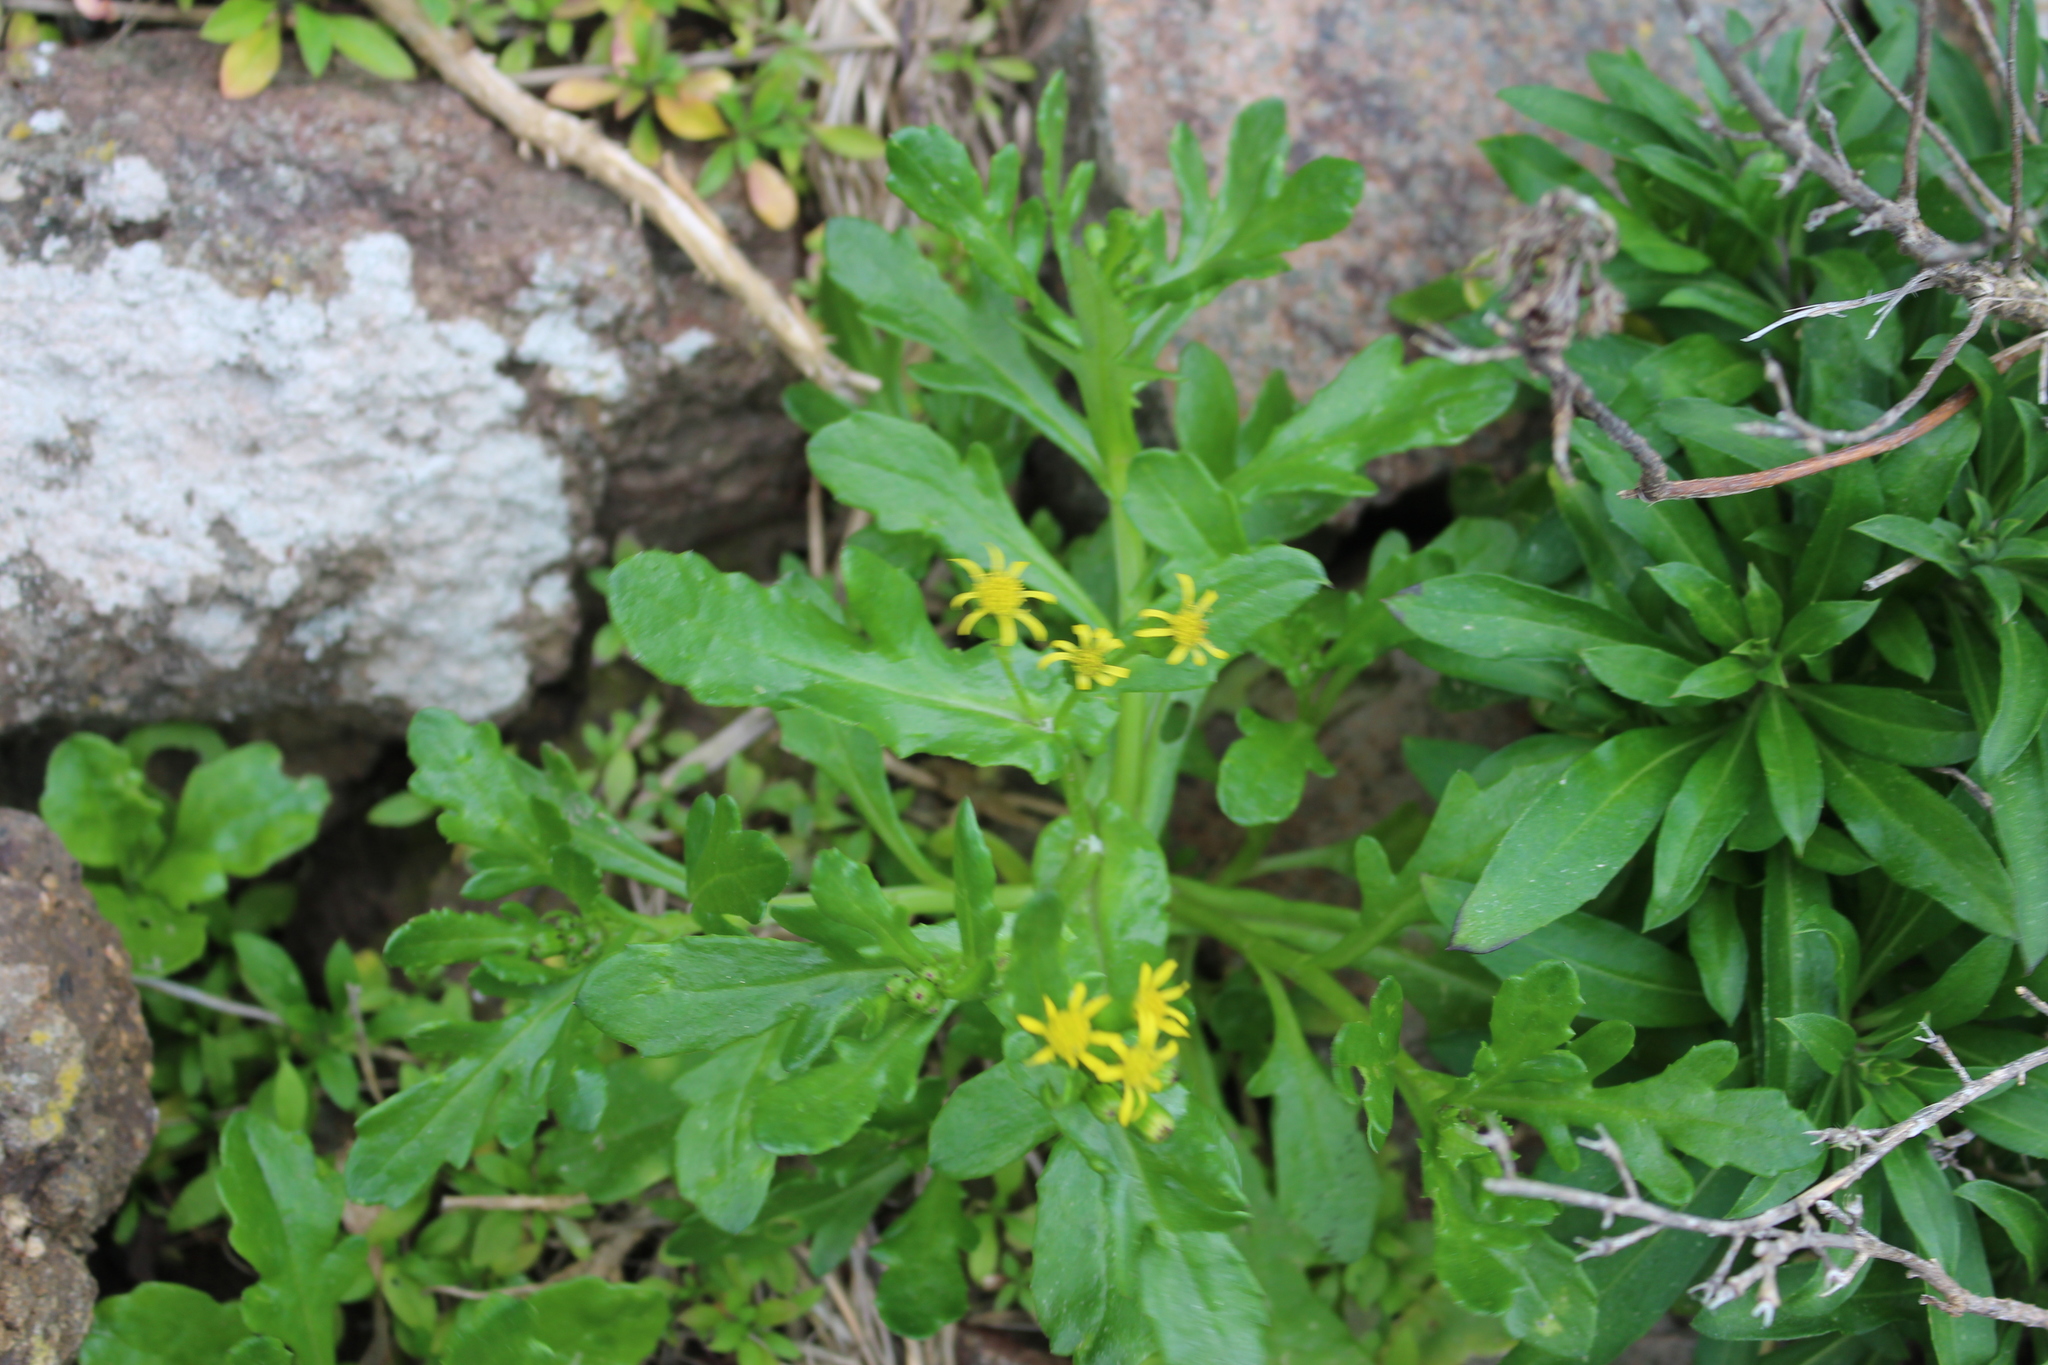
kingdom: Plantae
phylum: Tracheophyta
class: Magnoliopsida
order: Asterales
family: Asteraceae
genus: Senecio
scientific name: Senecio carnosulus
